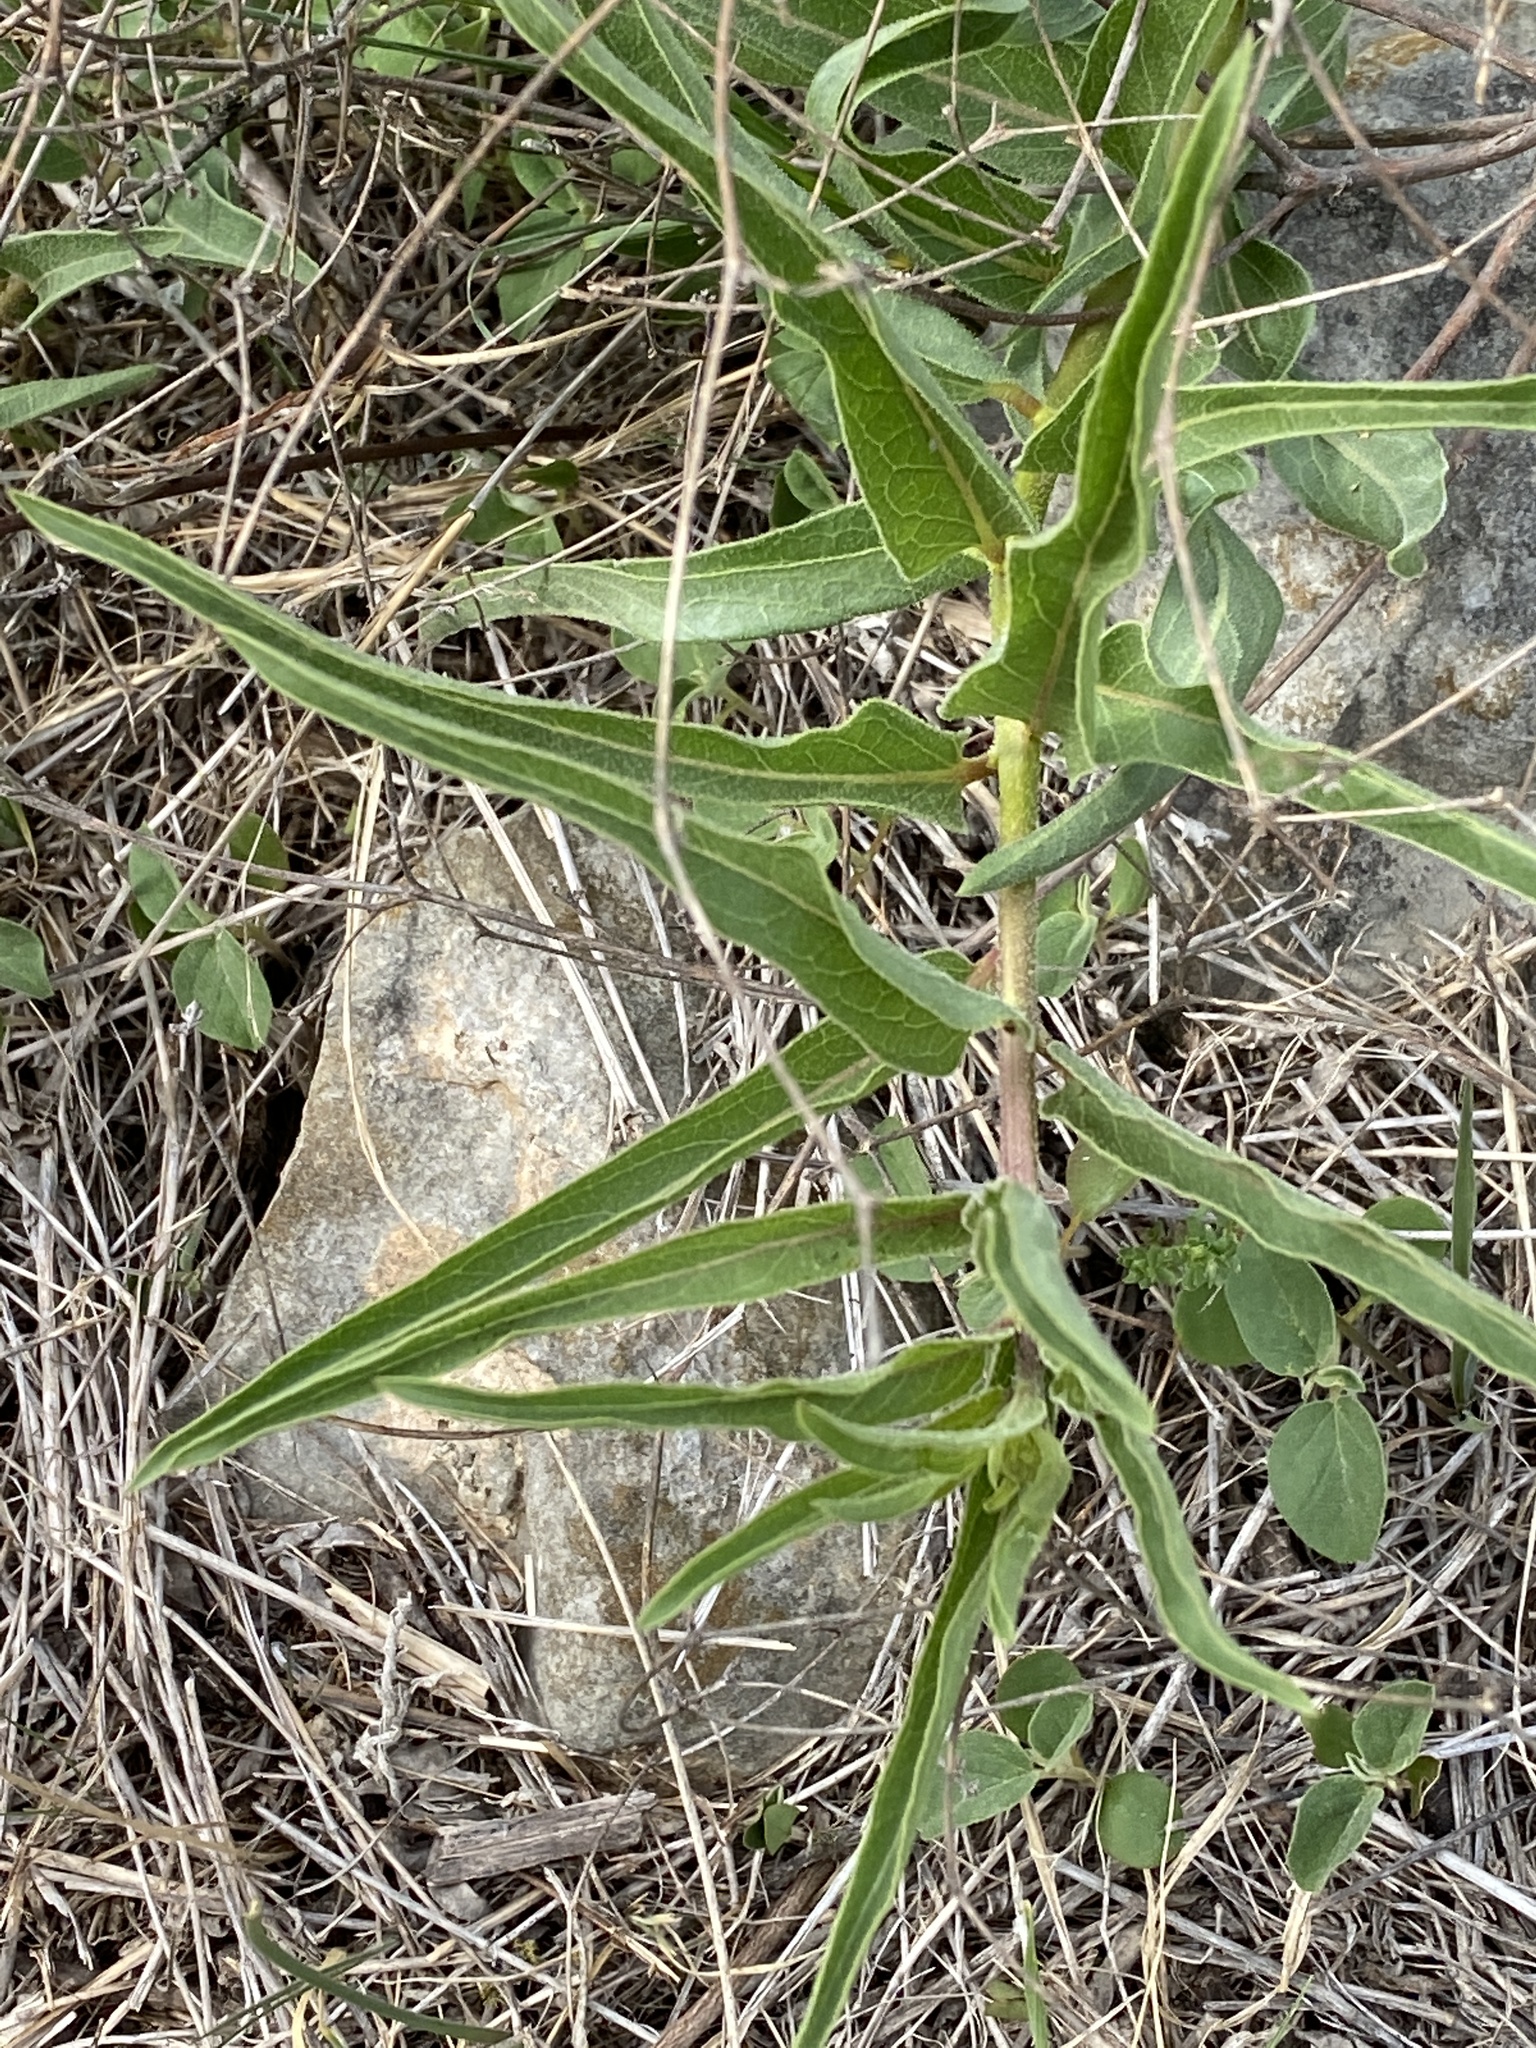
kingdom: Plantae
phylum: Tracheophyta
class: Magnoliopsida
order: Gentianales
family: Apocynaceae
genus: Asclepias
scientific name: Asclepias asperula
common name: Antelope horns
